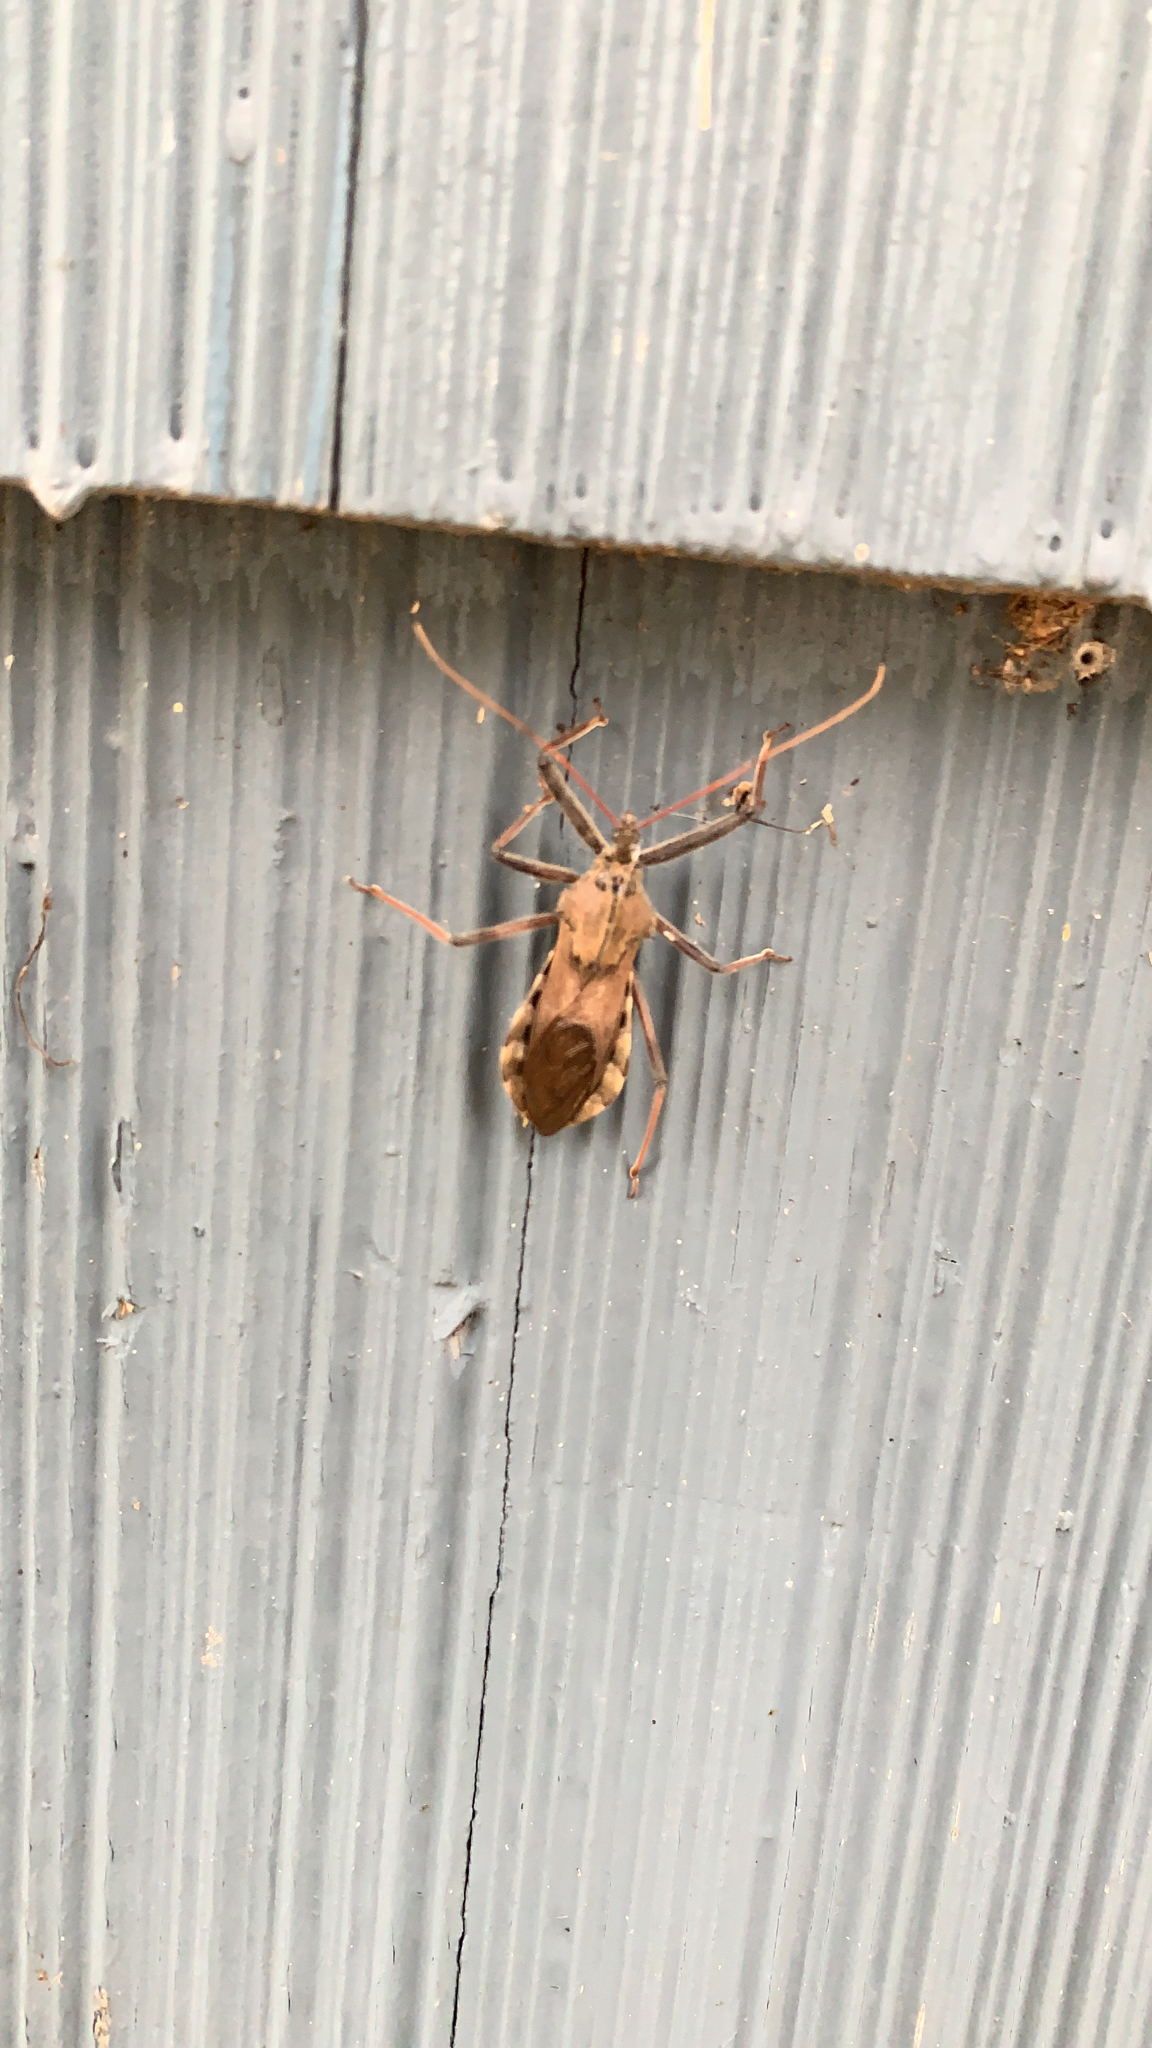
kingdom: Animalia
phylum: Arthropoda
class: Insecta
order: Hemiptera
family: Reduviidae
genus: Arilus
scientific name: Arilus cristatus
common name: North american wheel bug
